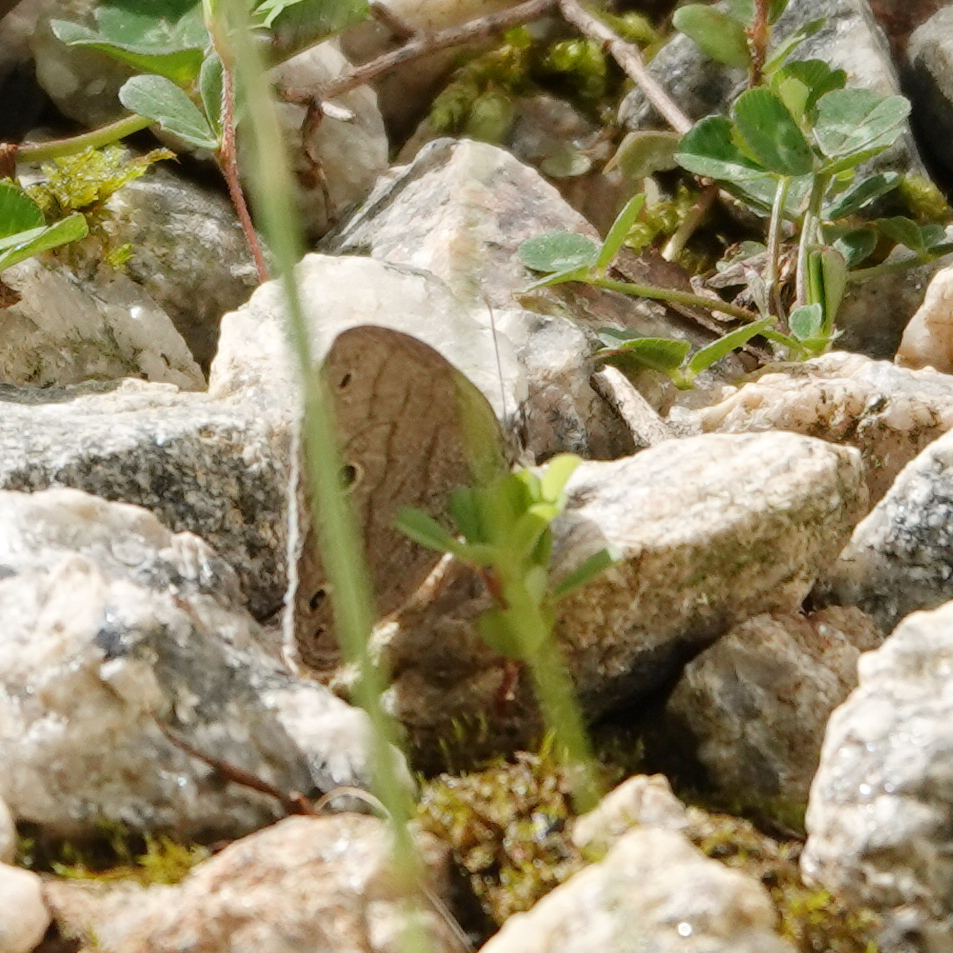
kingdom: Animalia
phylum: Arthropoda
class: Insecta
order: Lepidoptera
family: Nymphalidae
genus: Hermeuptychia
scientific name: Hermeuptychia hermes
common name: Hermes satyr
